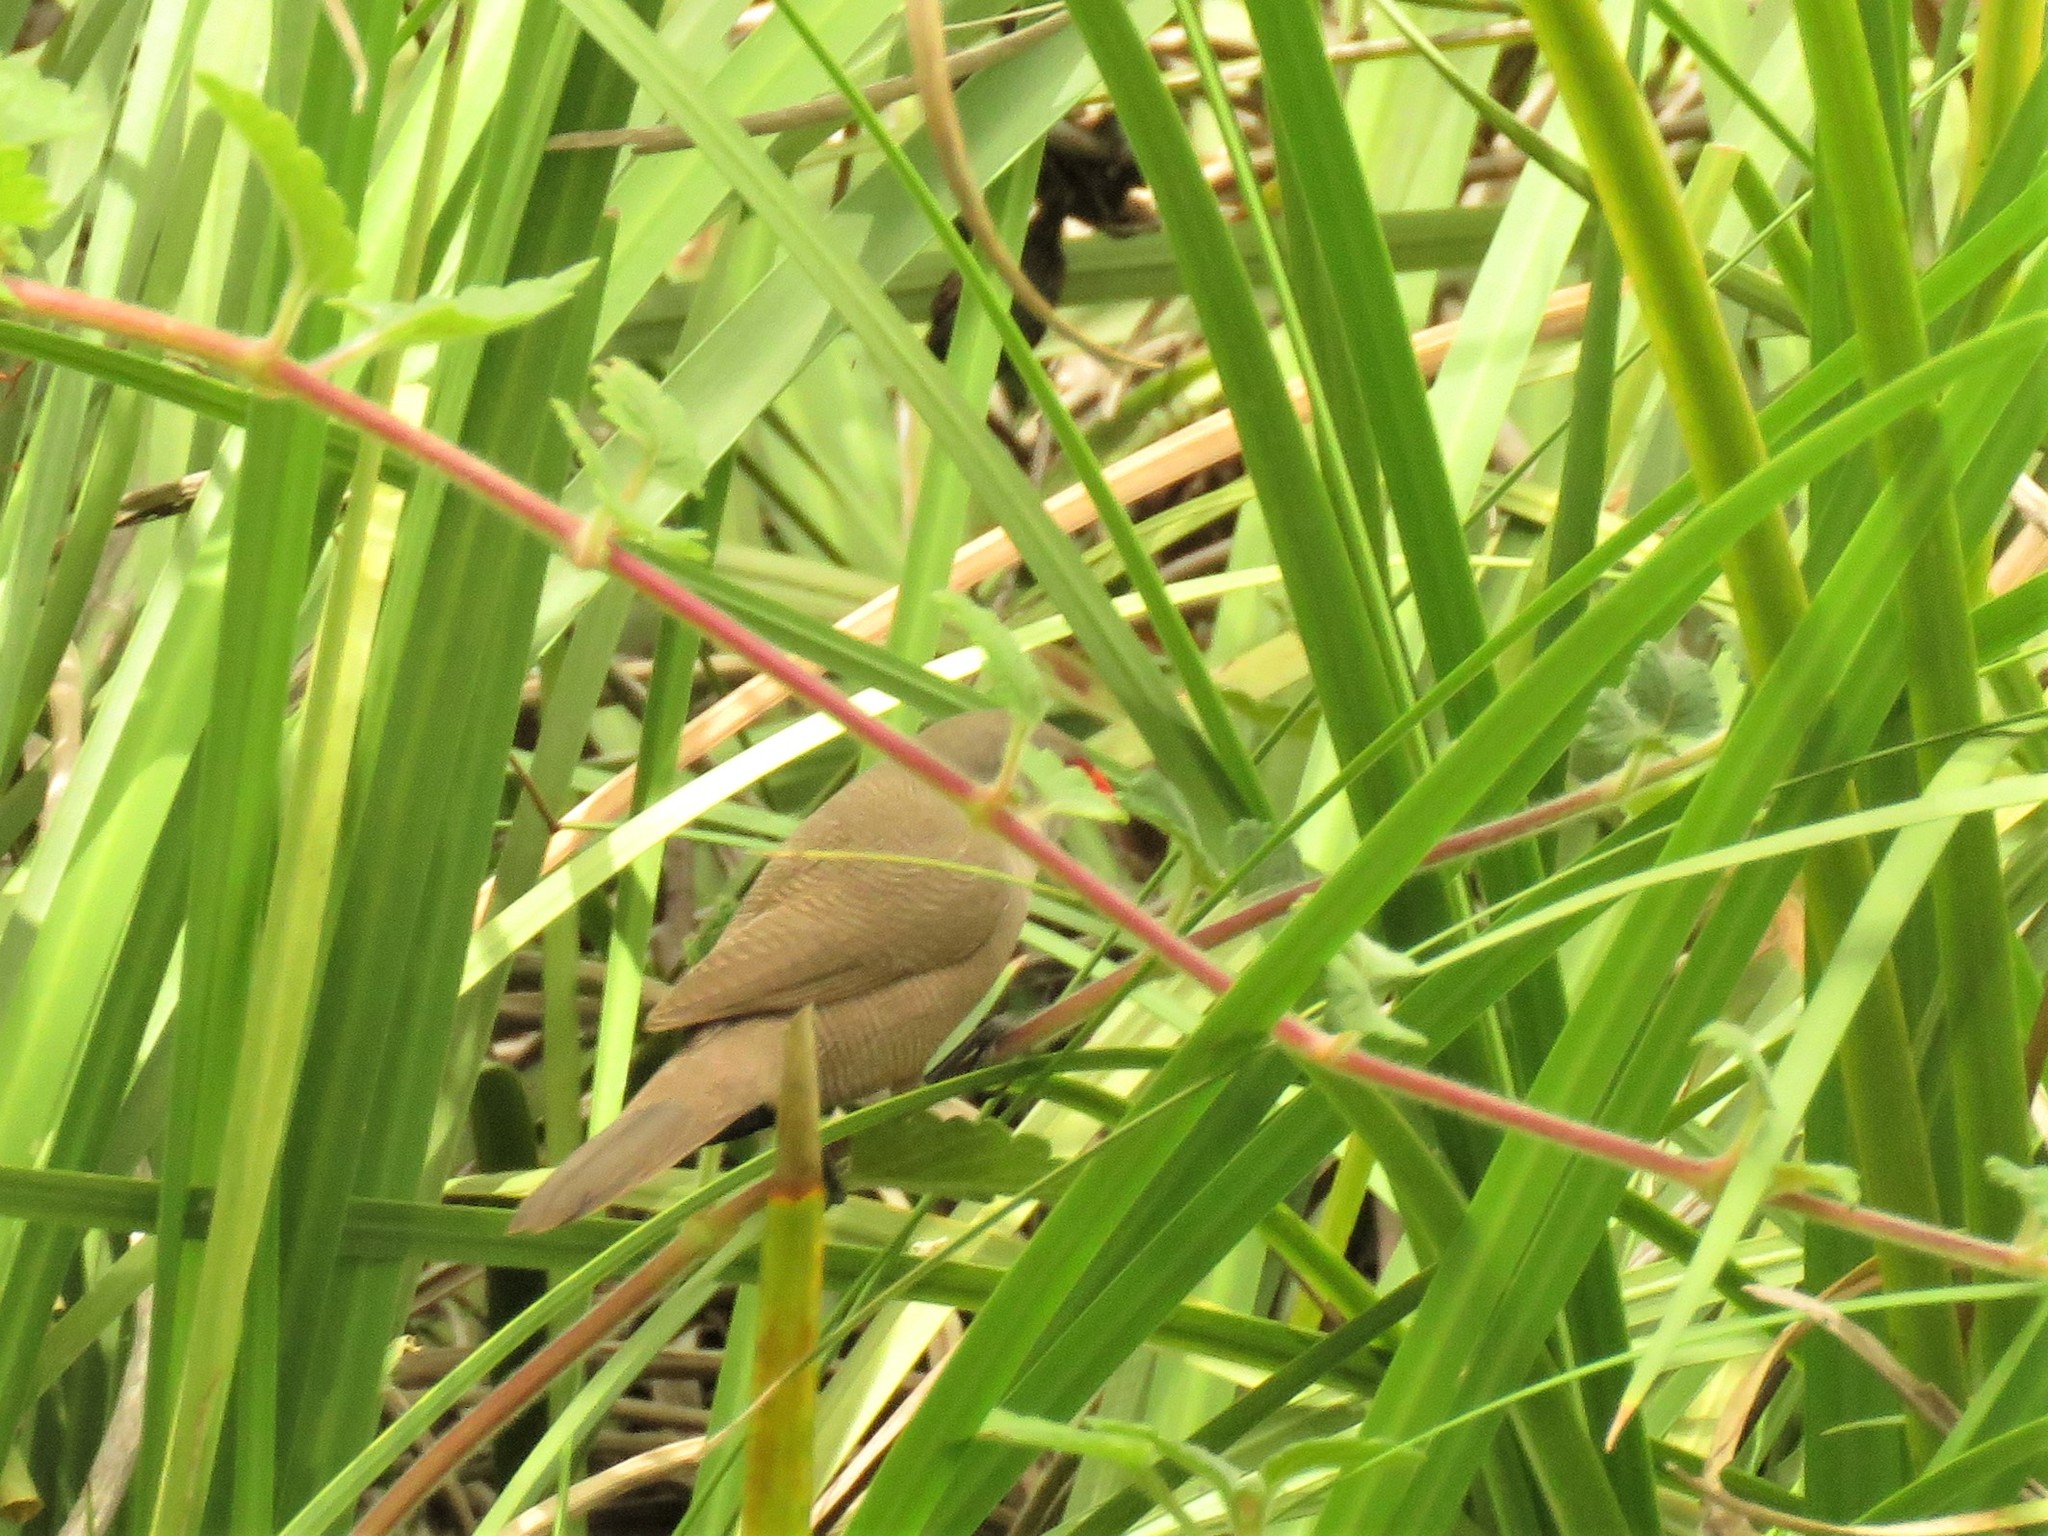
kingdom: Animalia
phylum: Chordata
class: Aves
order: Passeriformes
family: Estrildidae
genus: Estrilda
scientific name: Estrilda astrild
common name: Common waxbill
